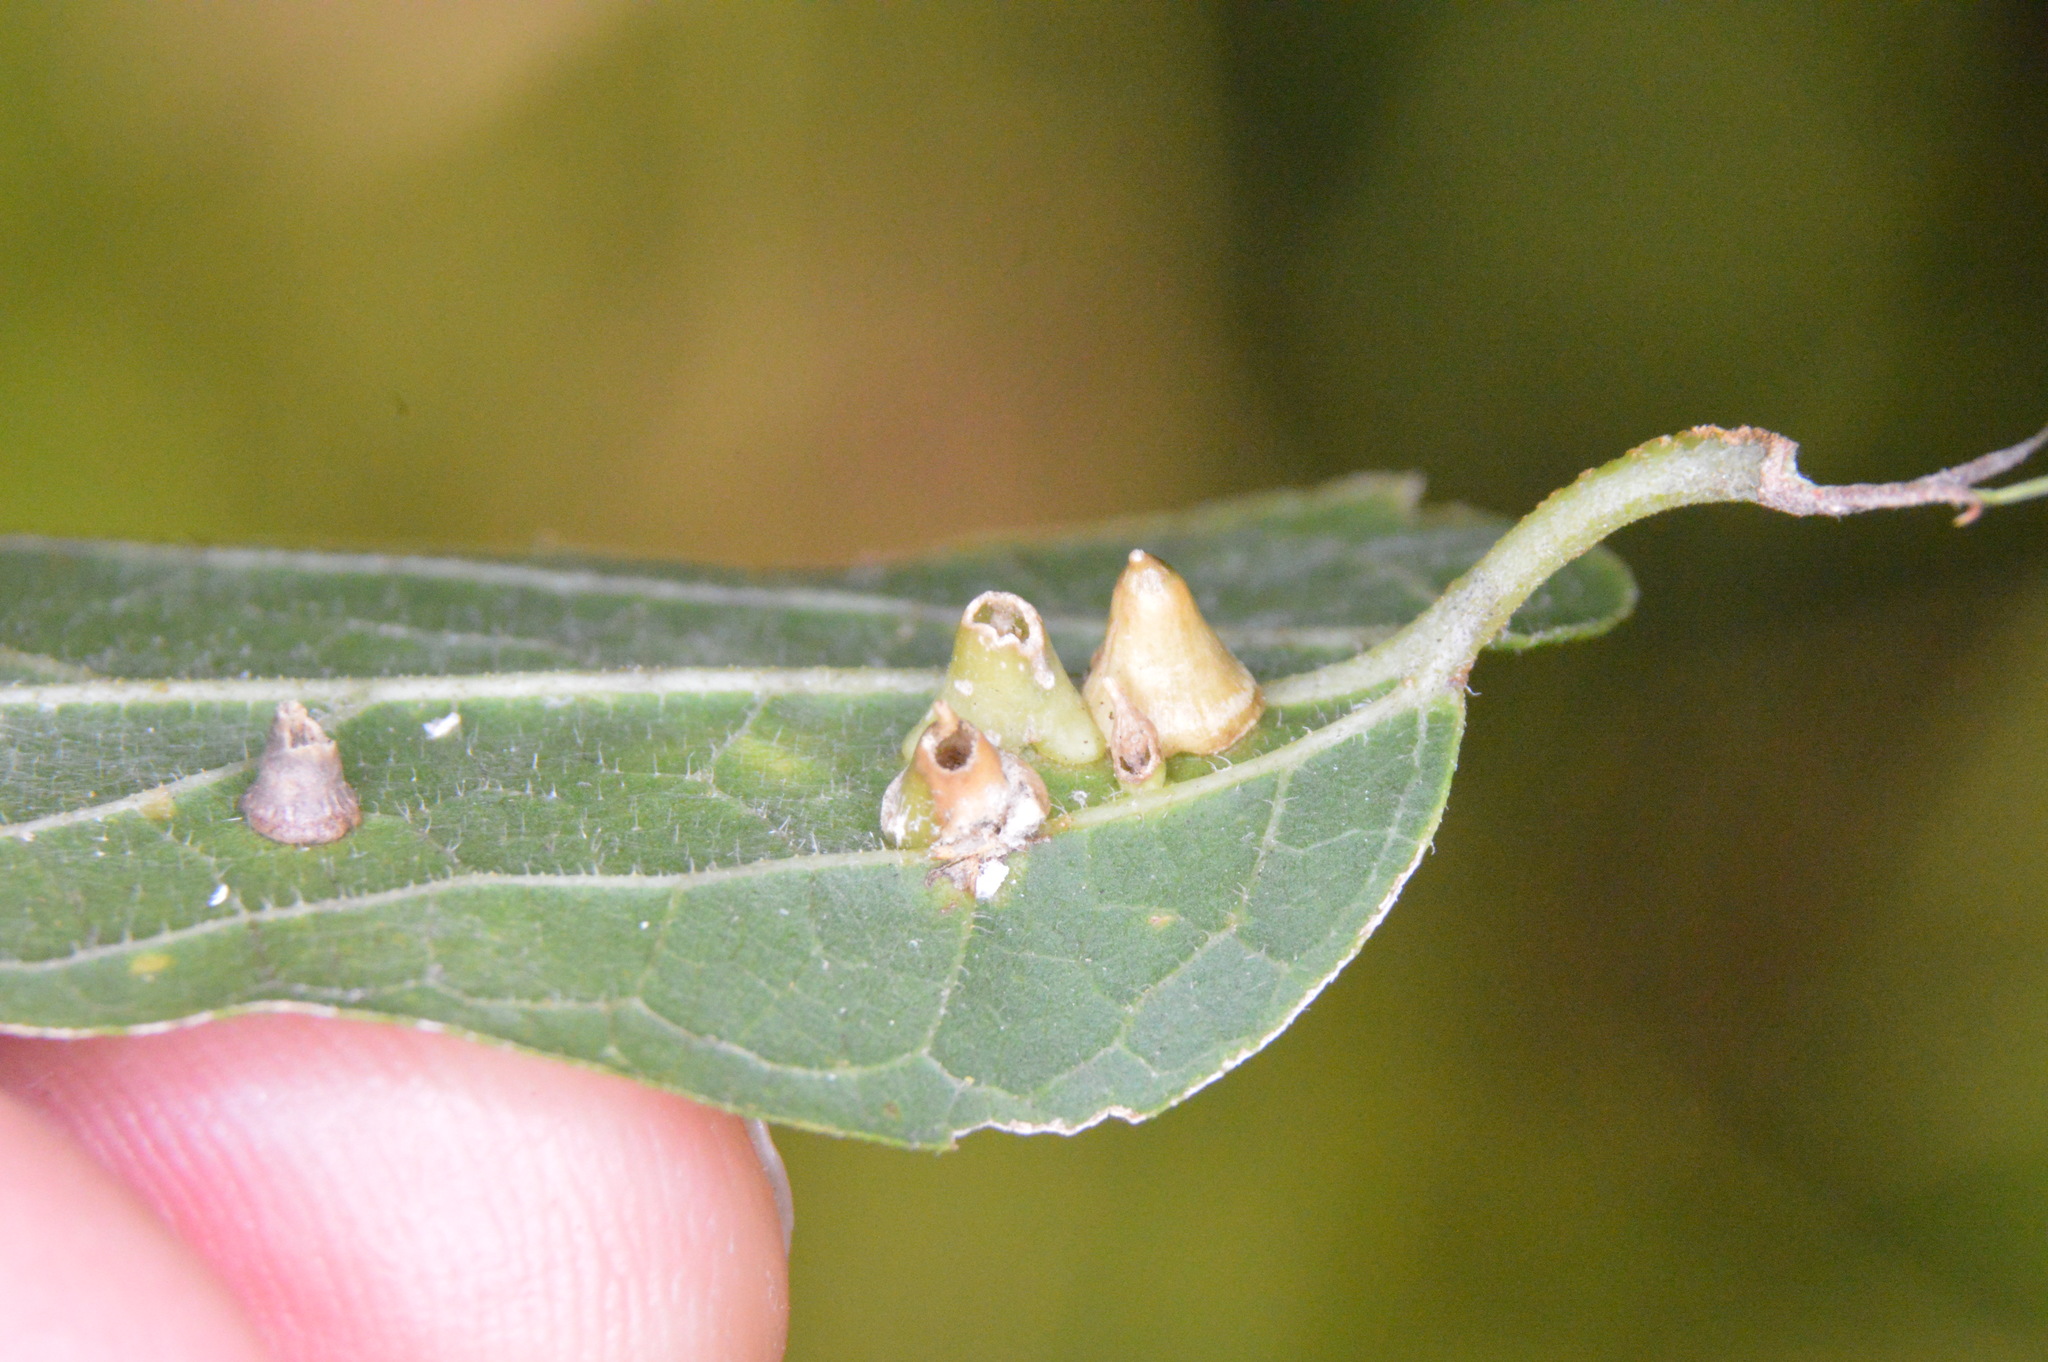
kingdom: Animalia
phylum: Arthropoda
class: Insecta
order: Diptera
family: Cecidomyiidae
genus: Celticecis
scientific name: Celticecis spiniformis
